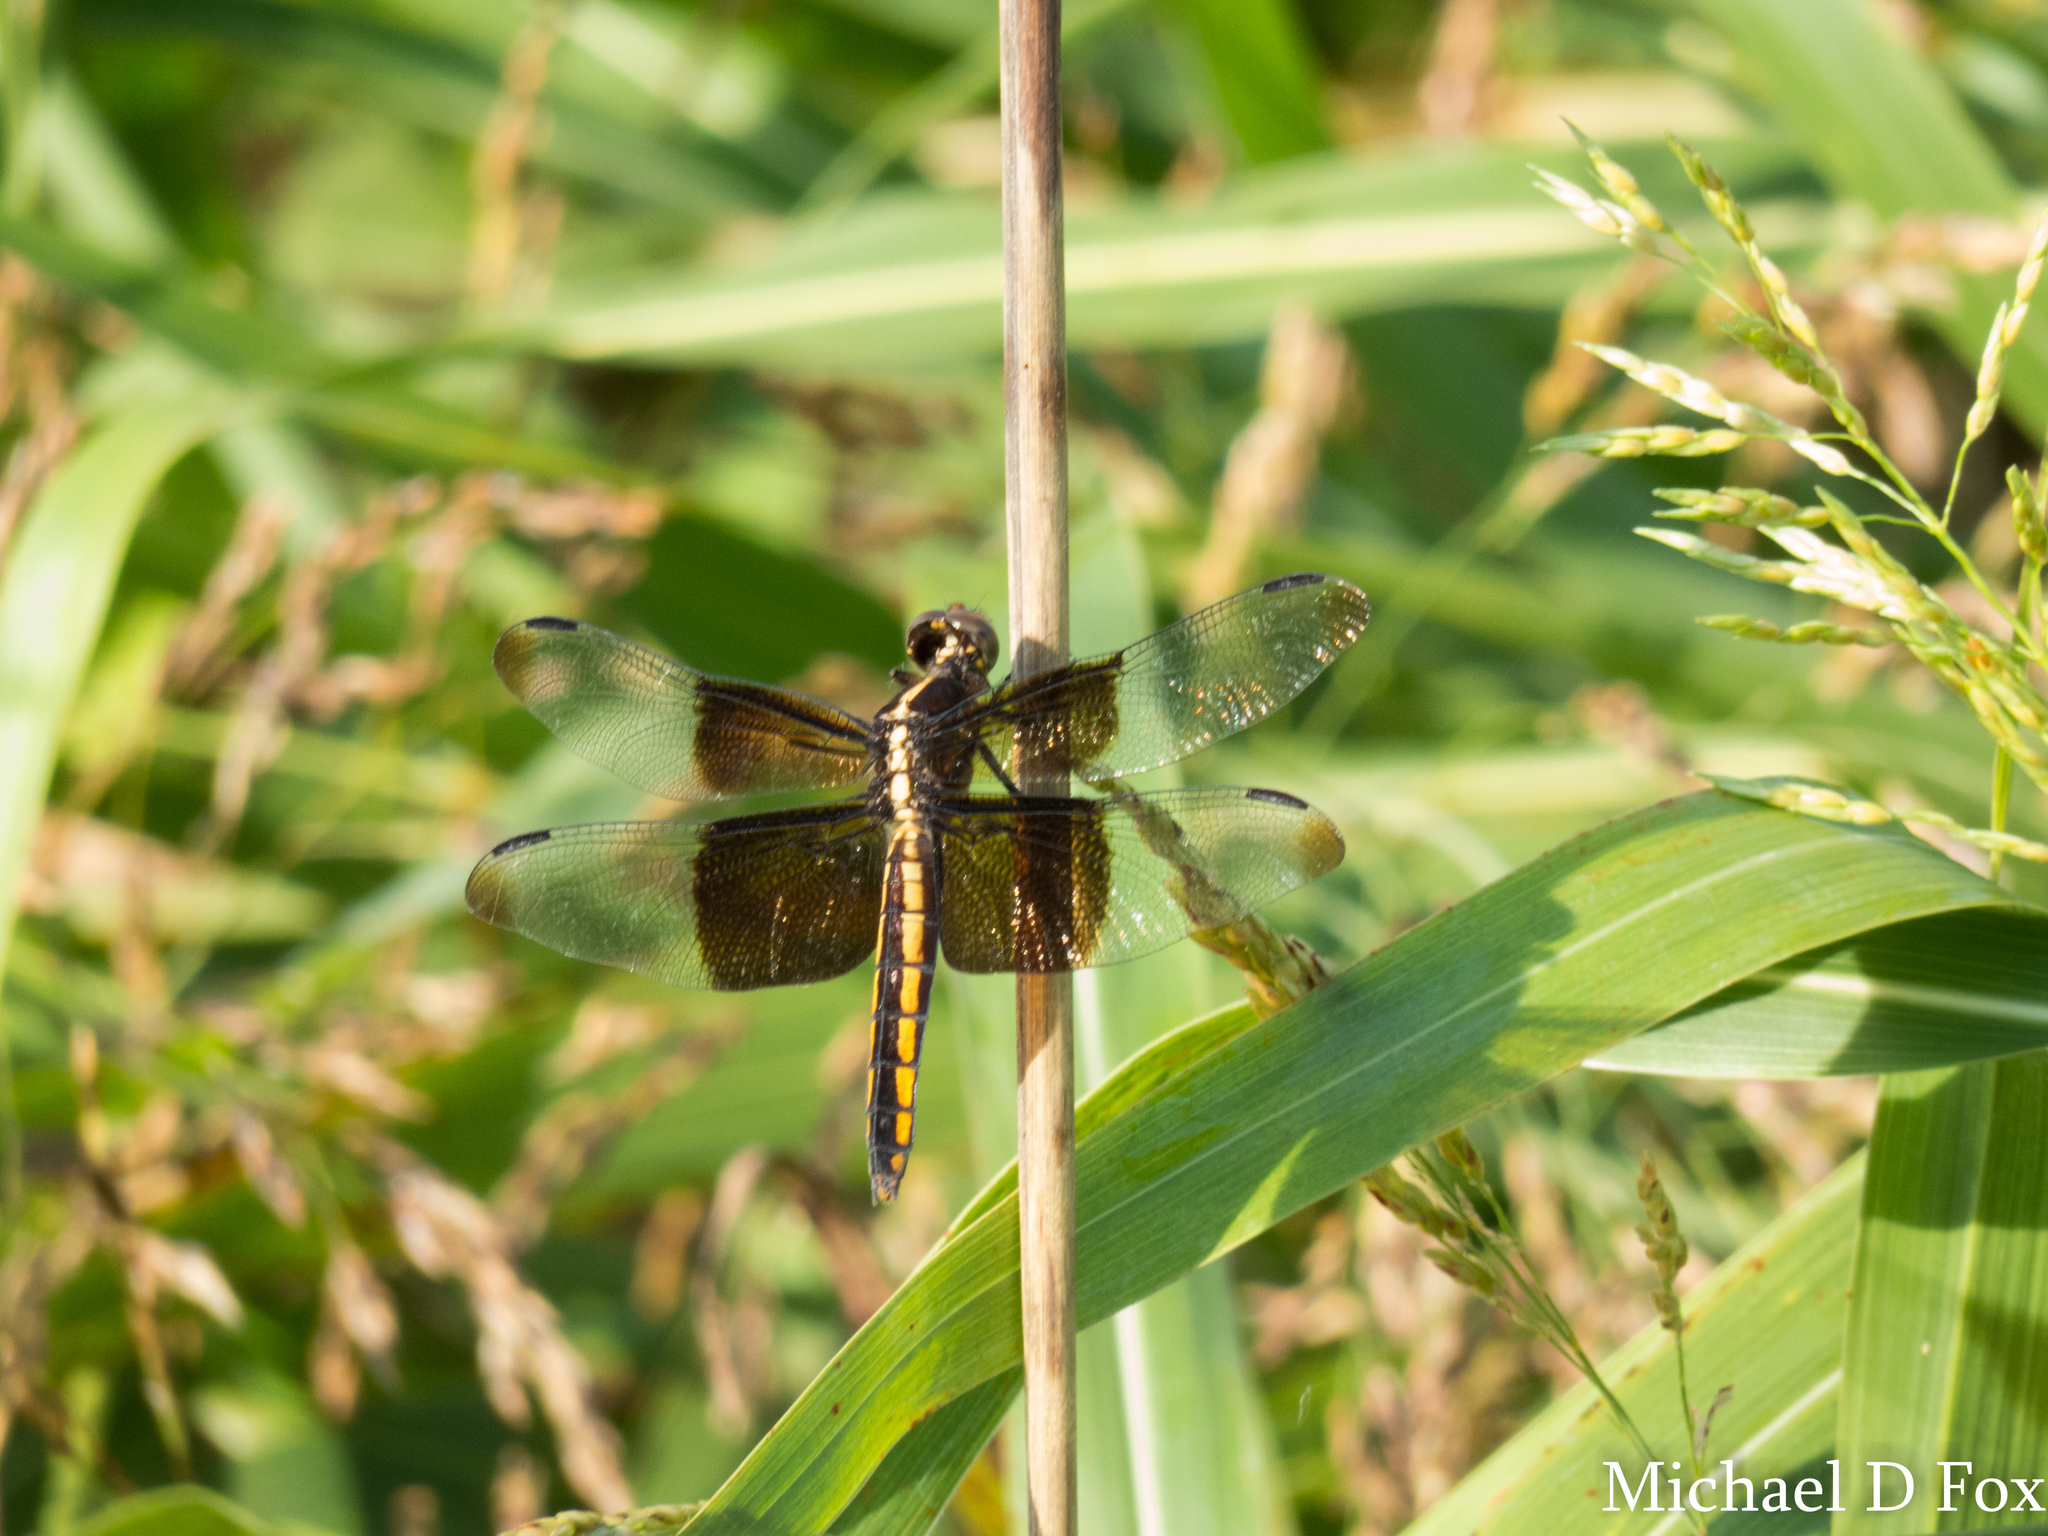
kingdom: Animalia
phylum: Arthropoda
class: Insecta
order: Odonata
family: Libellulidae
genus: Libellula
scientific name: Libellula luctuosa
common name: Widow skimmer
